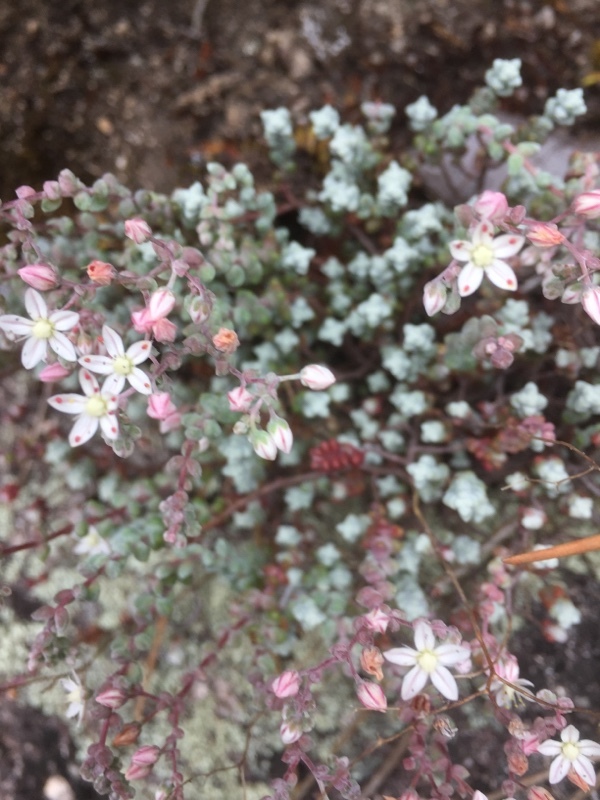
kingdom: Plantae
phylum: Tracheophyta
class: Magnoliopsida
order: Saxifragales
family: Crassulaceae
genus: Sedum
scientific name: Sedum brevifolium
